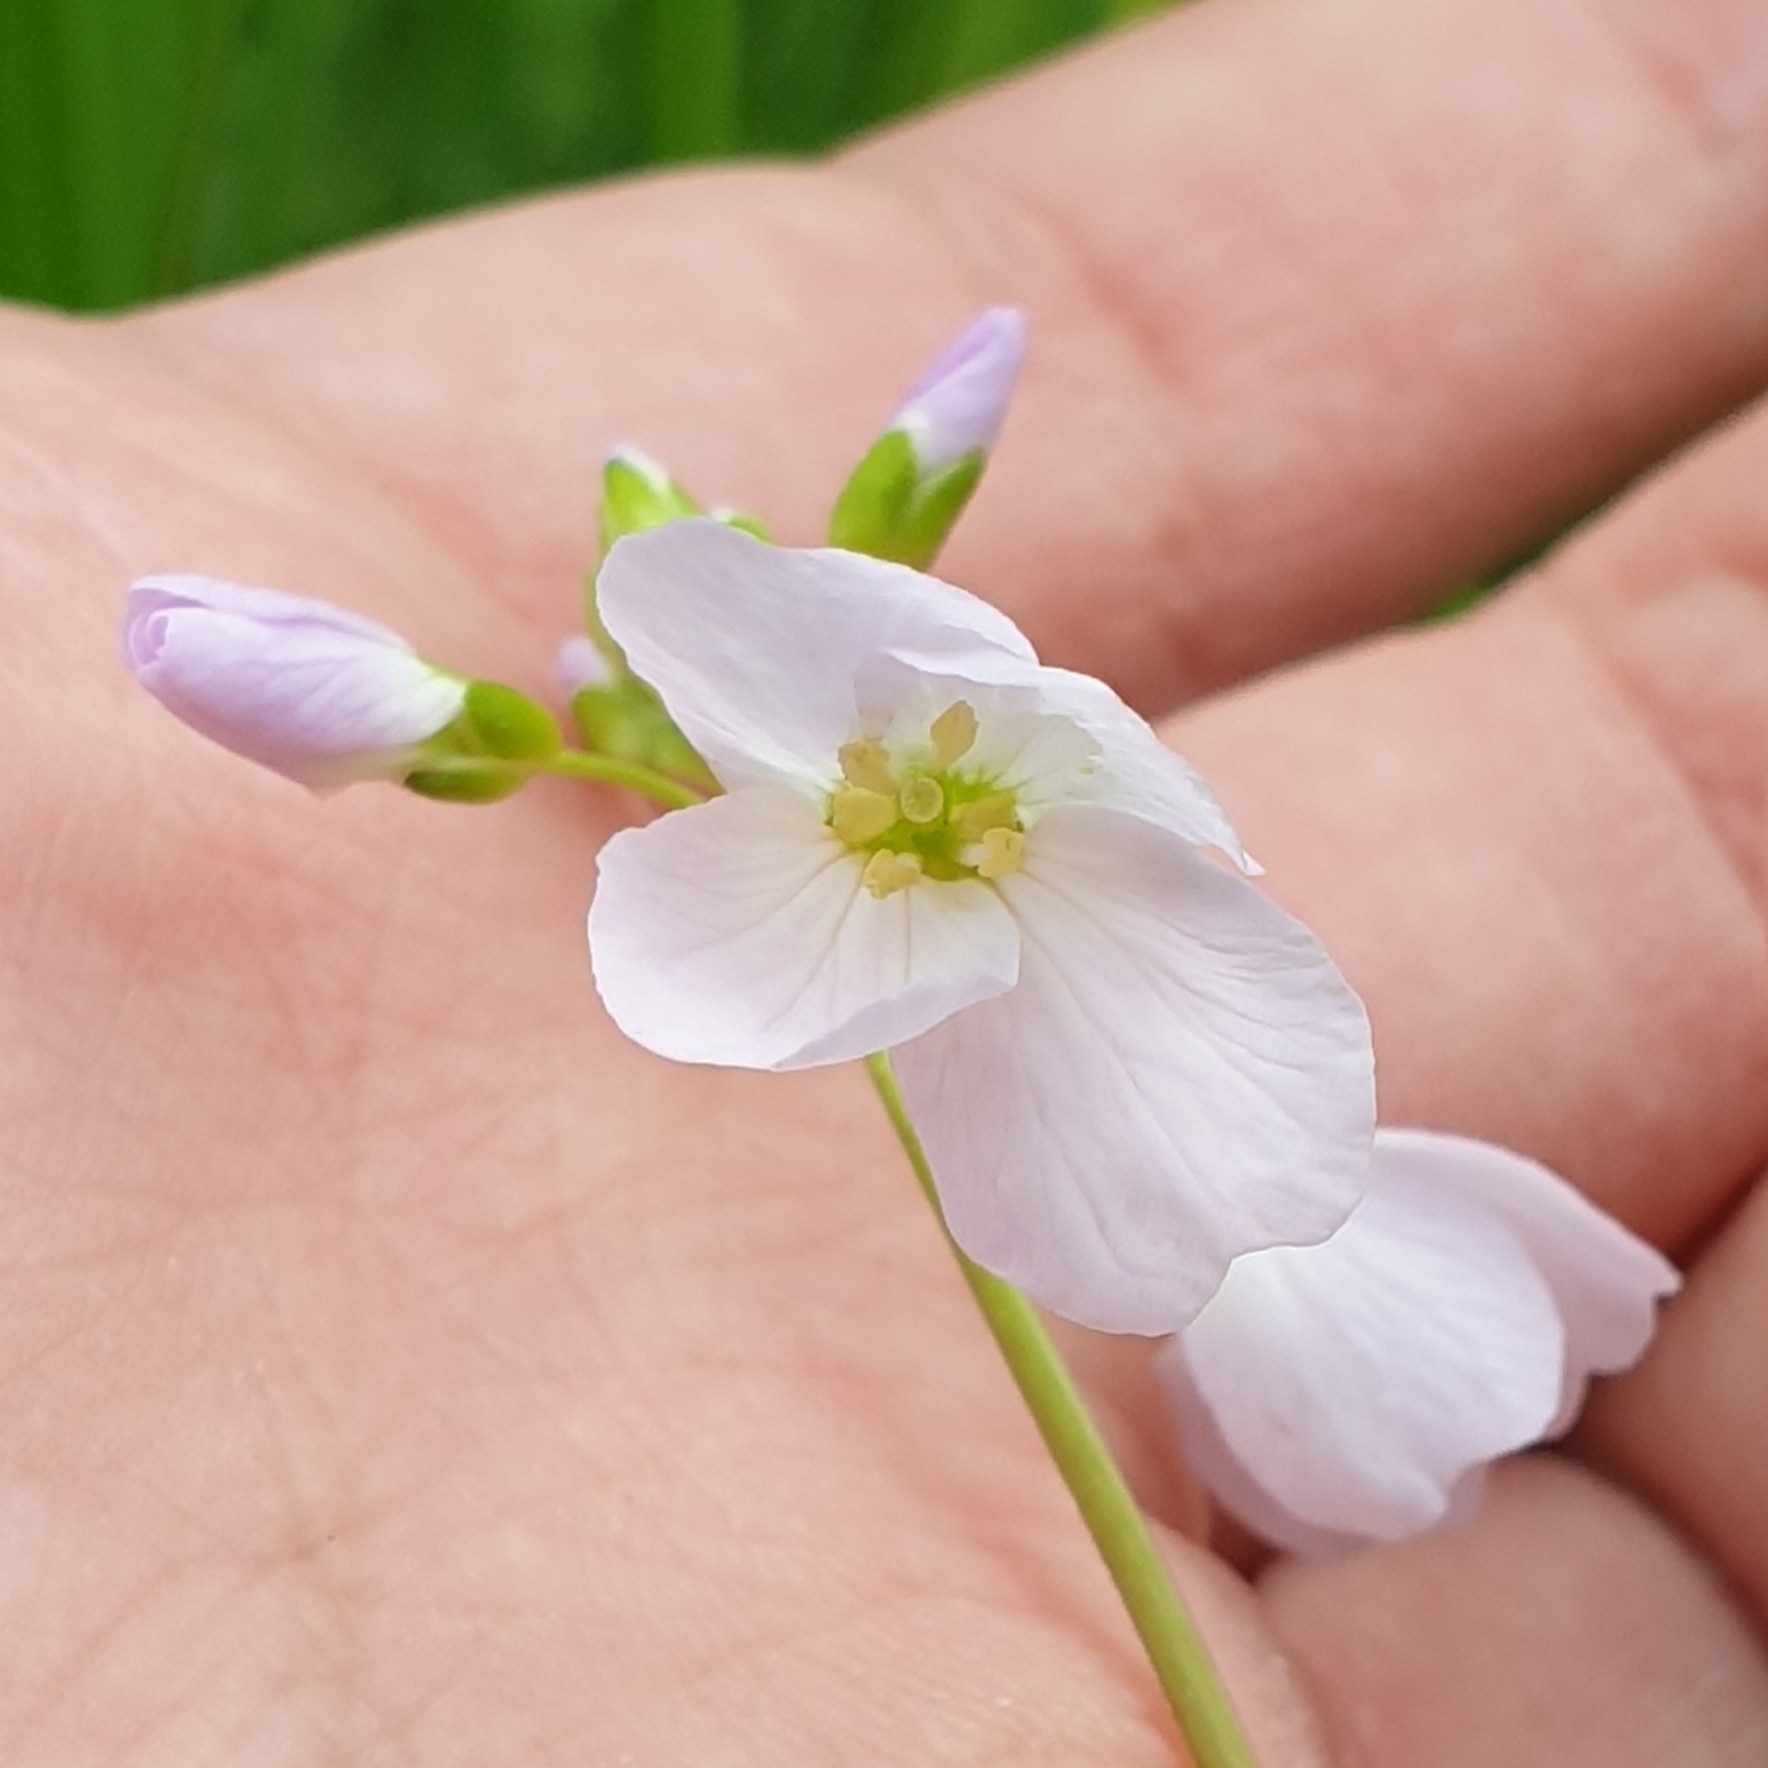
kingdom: Plantae
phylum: Tracheophyta
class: Magnoliopsida
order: Brassicales
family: Brassicaceae
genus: Cardamine
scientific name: Cardamine pratensis
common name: Cuckoo flower
